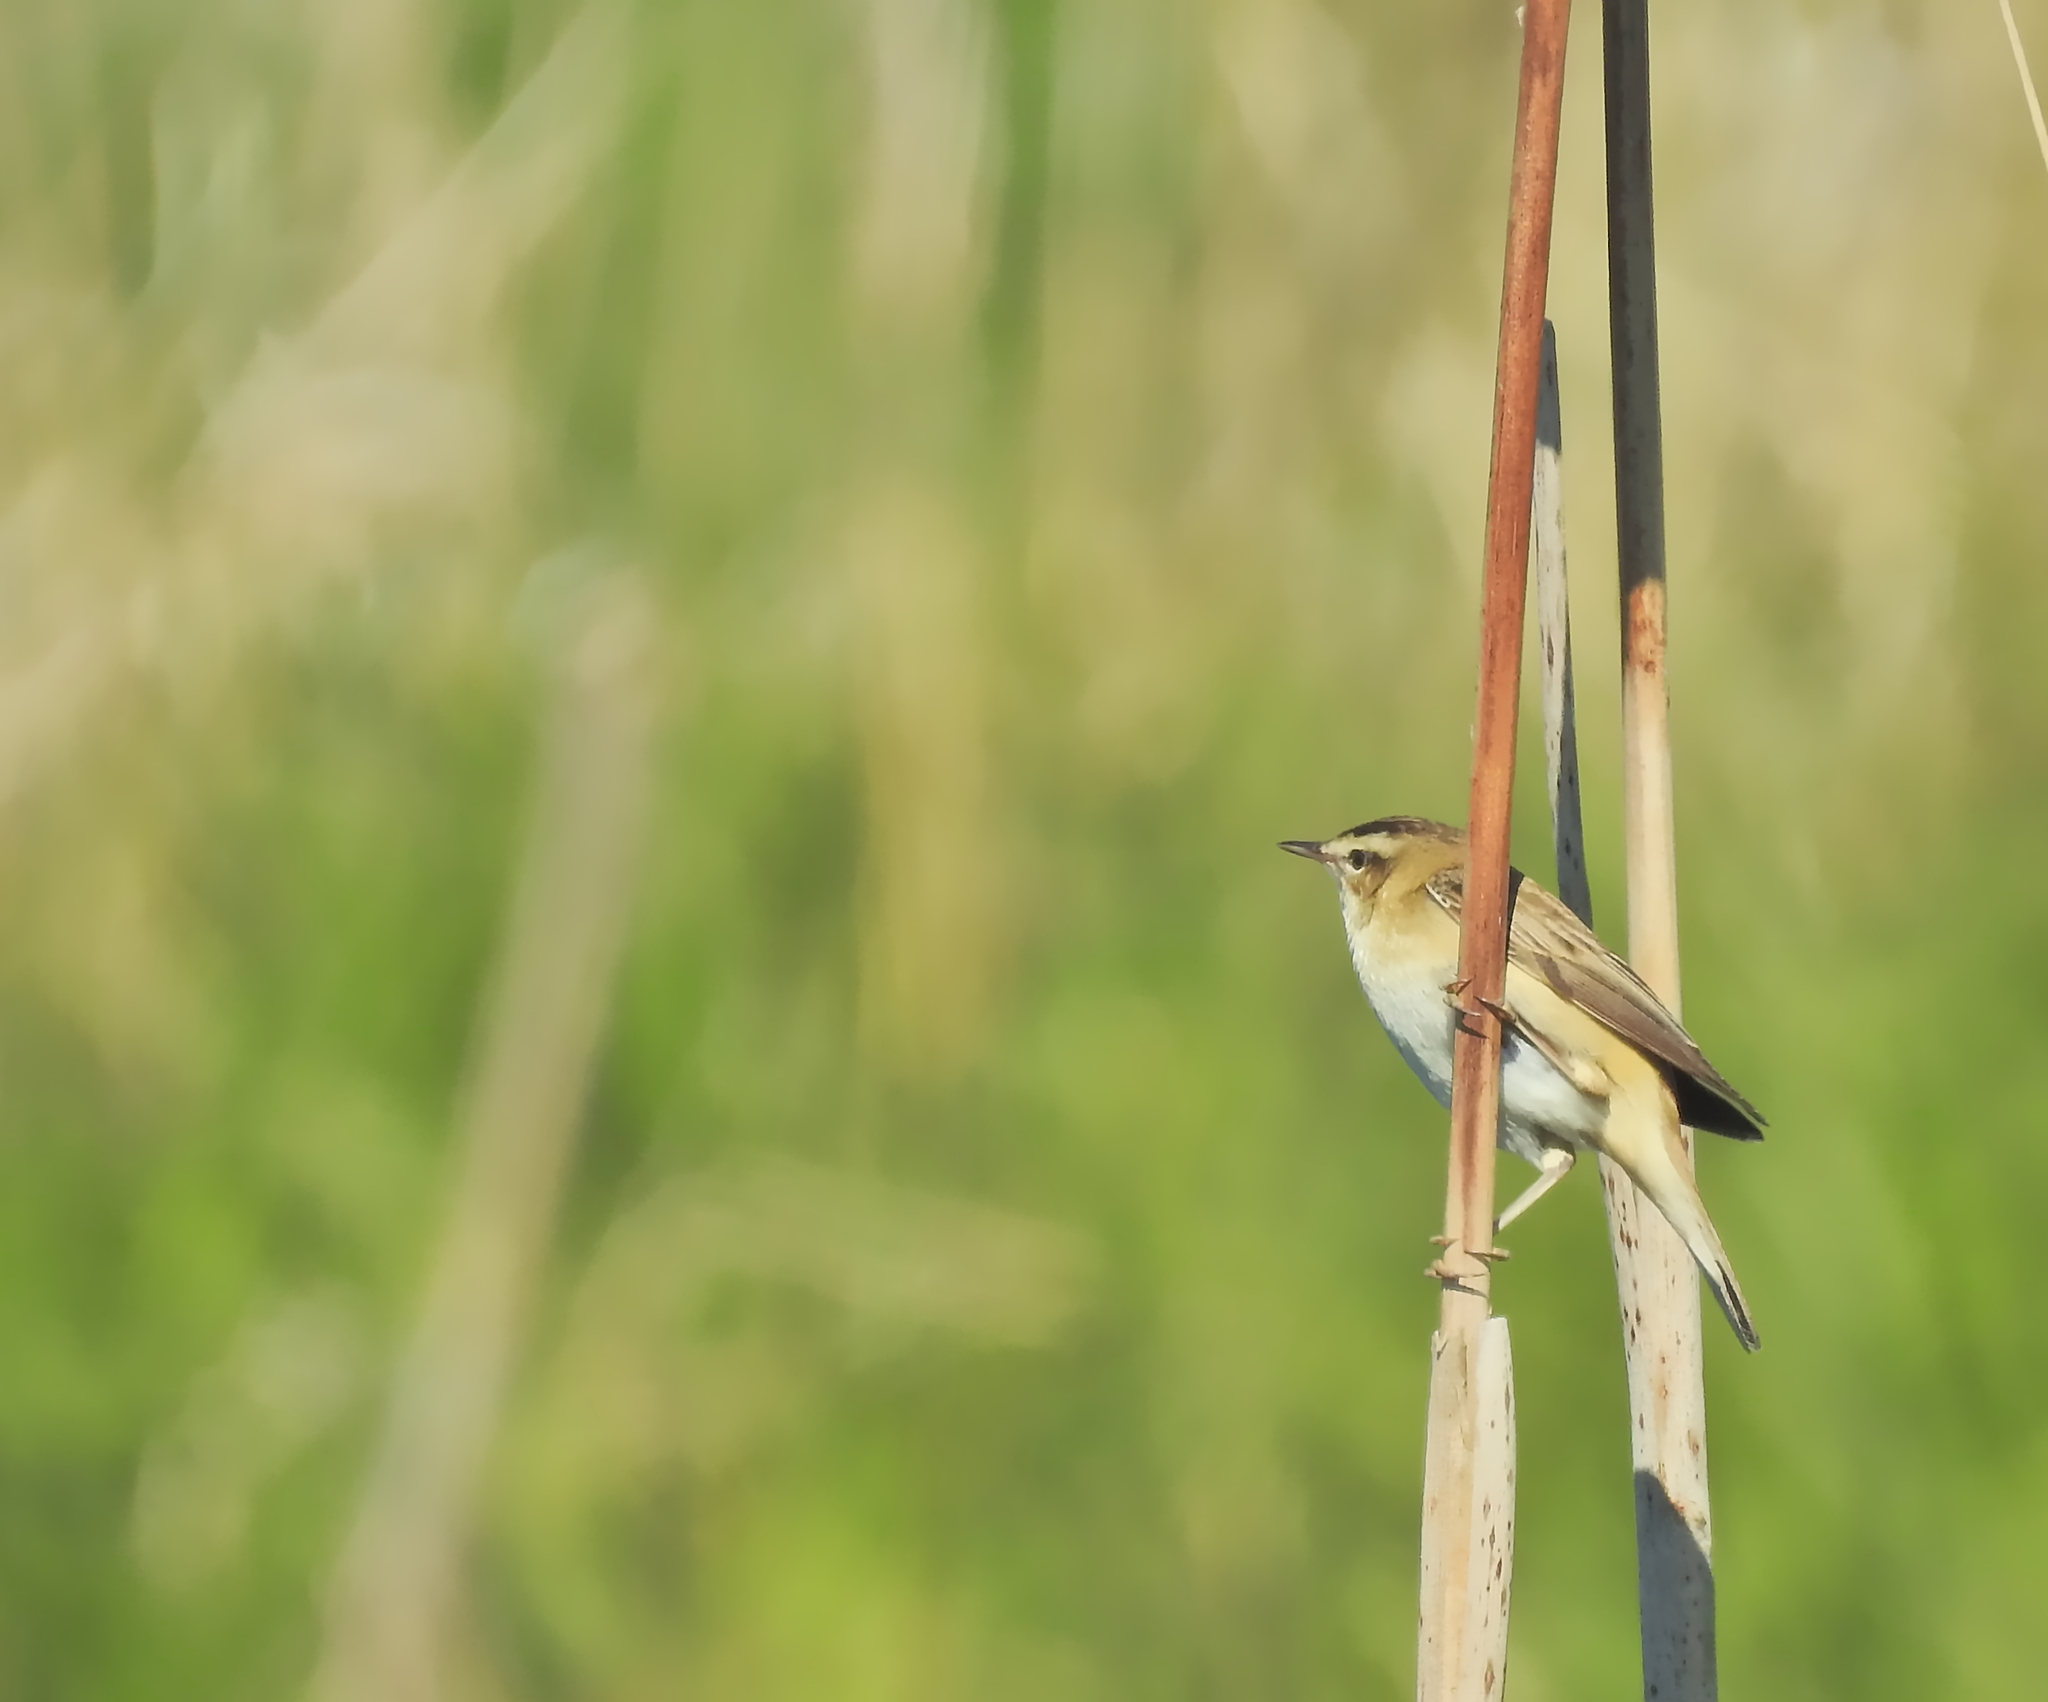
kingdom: Animalia
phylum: Chordata
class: Aves
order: Passeriformes
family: Acrocephalidae
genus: Acrocephalus
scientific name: Acrocephalus schoenobaenus
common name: Sedge warbler
